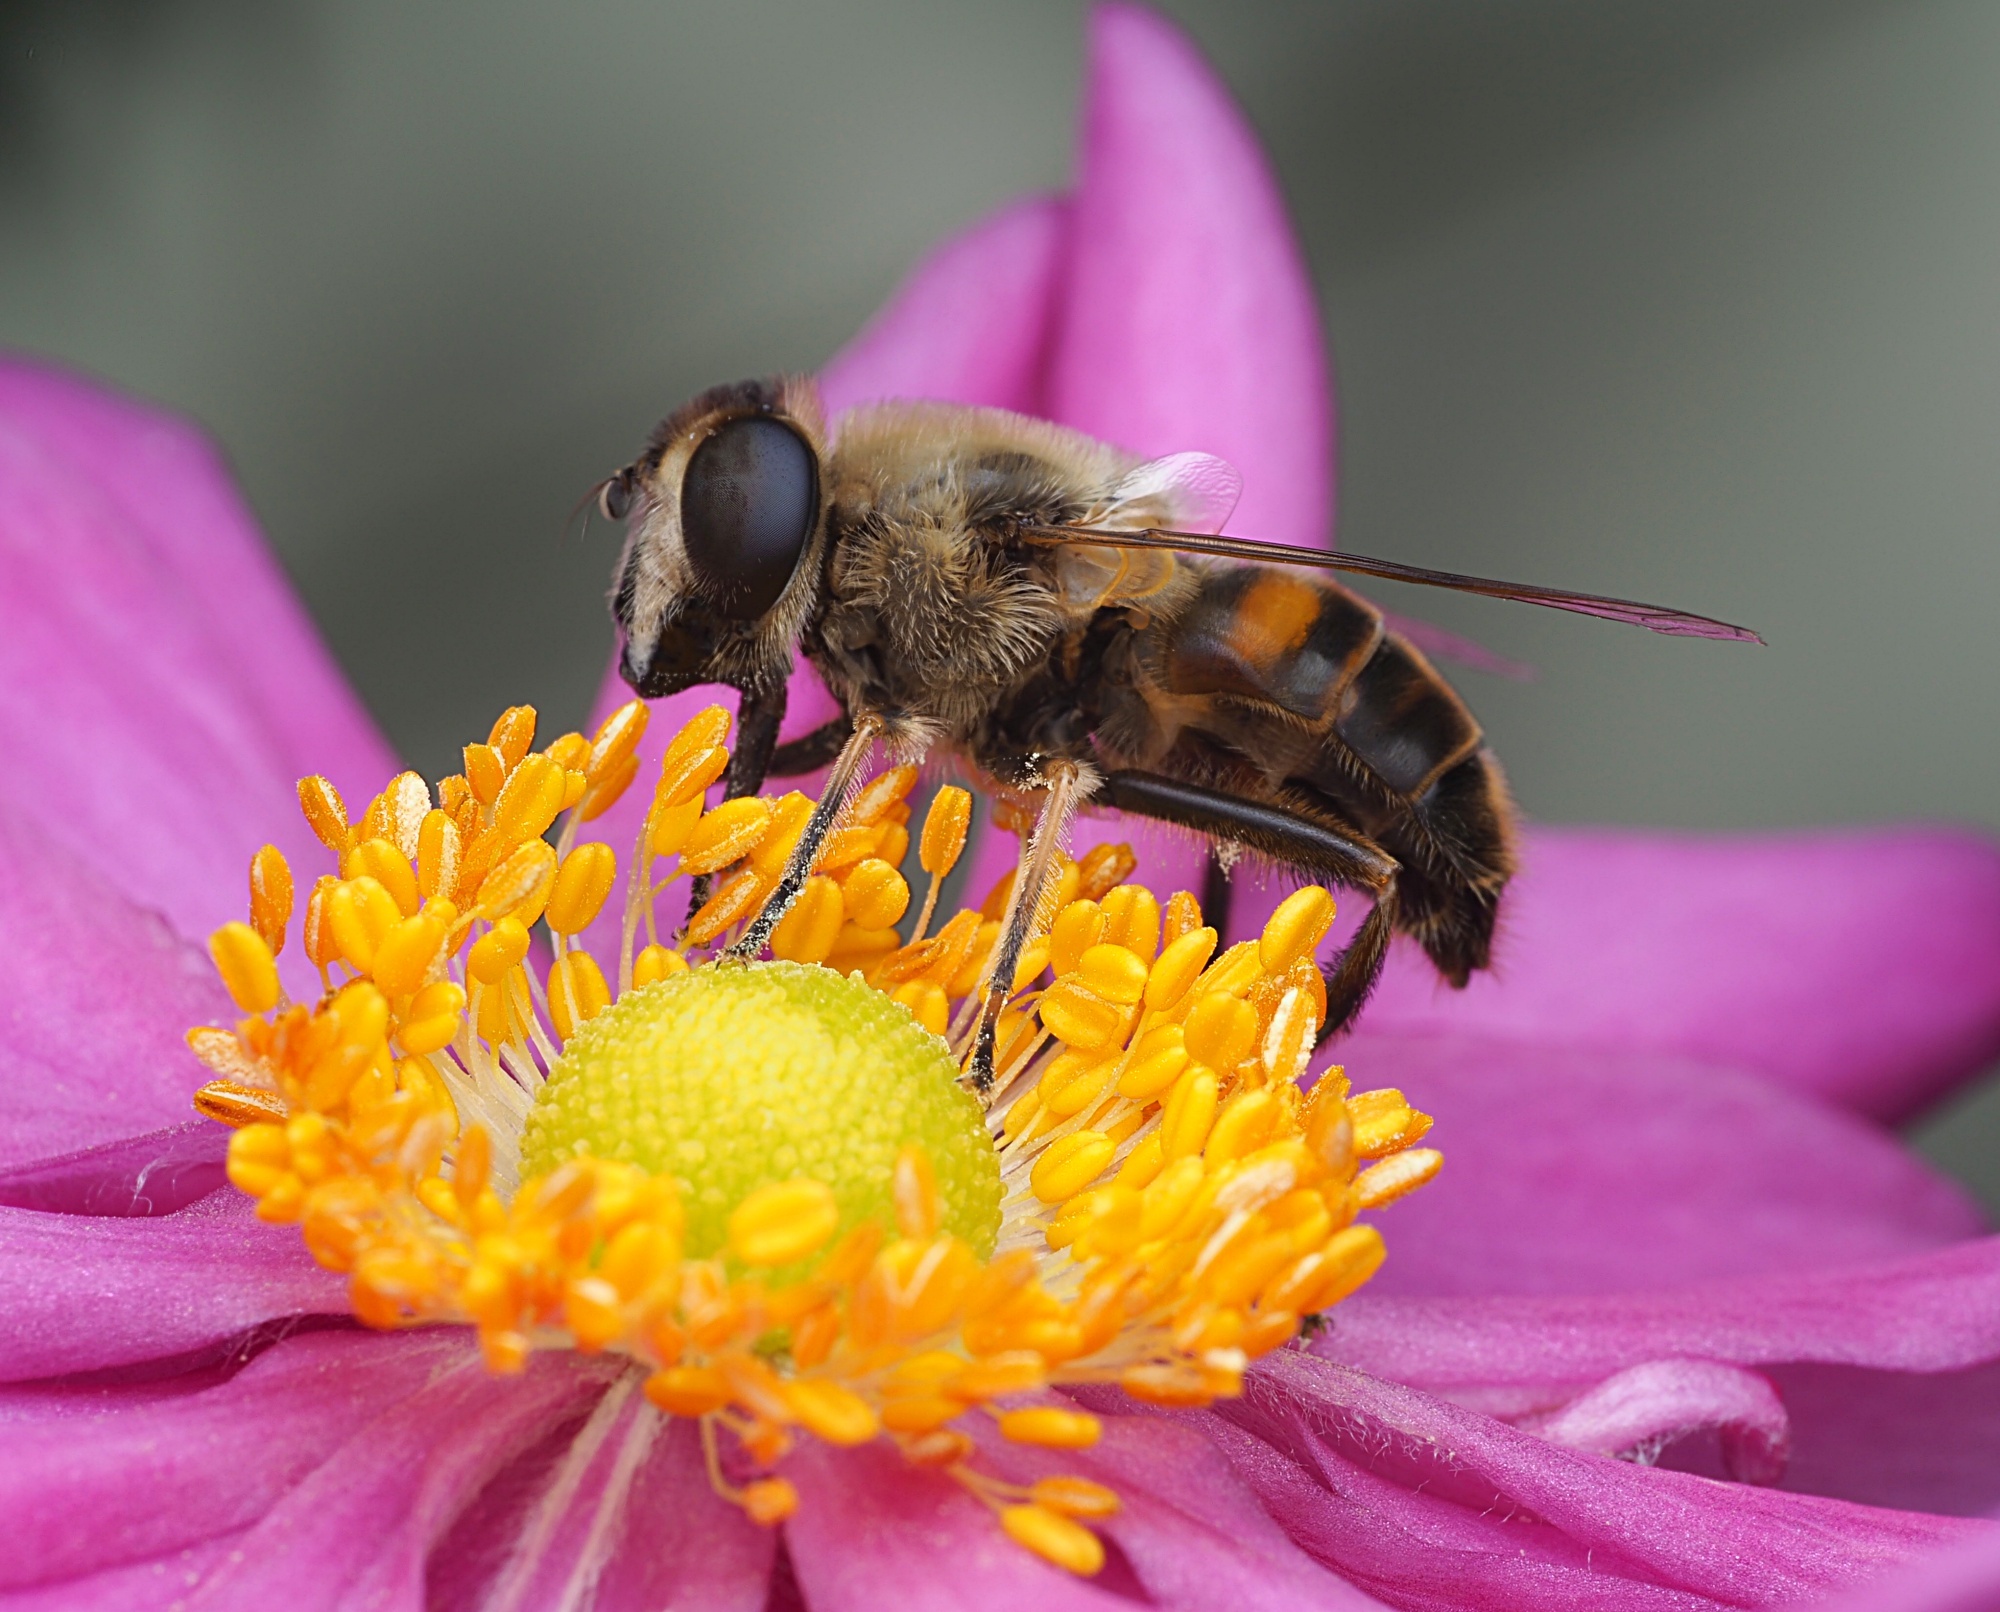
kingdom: Animalia
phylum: Arthropoda
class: Insecta
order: Diptera
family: Syrphidae
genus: Eristalis
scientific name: Eristalis tenax
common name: Drone fly
